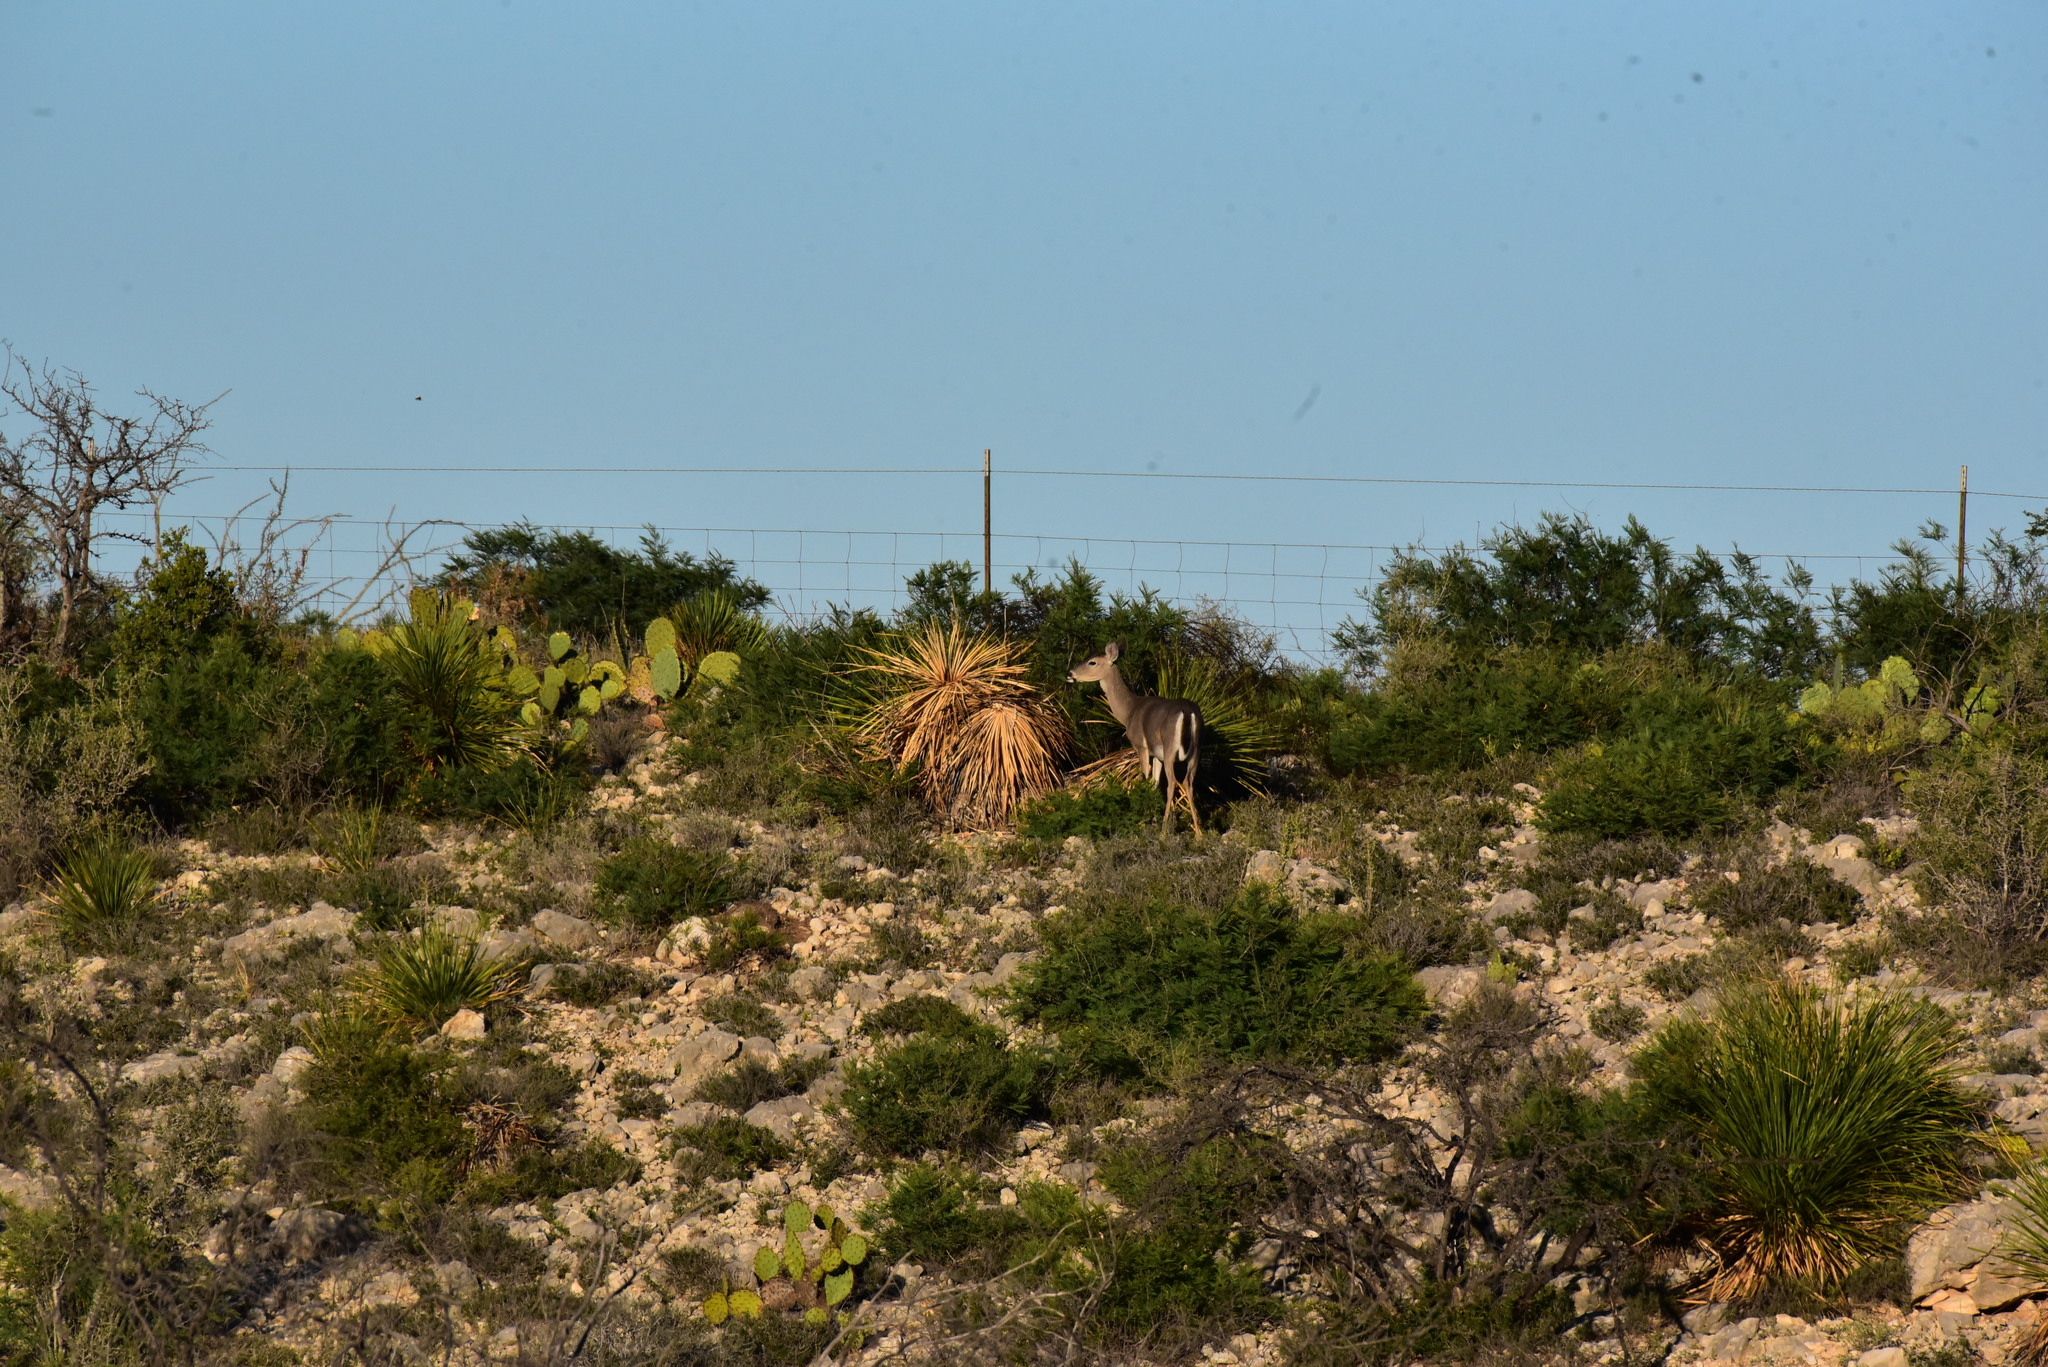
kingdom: Animalia
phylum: Chordata
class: Mammalia
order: Artiodactyla
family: Cervidae
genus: Odocoileus
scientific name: Odocoileus virginianus
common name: White-tailed deer
